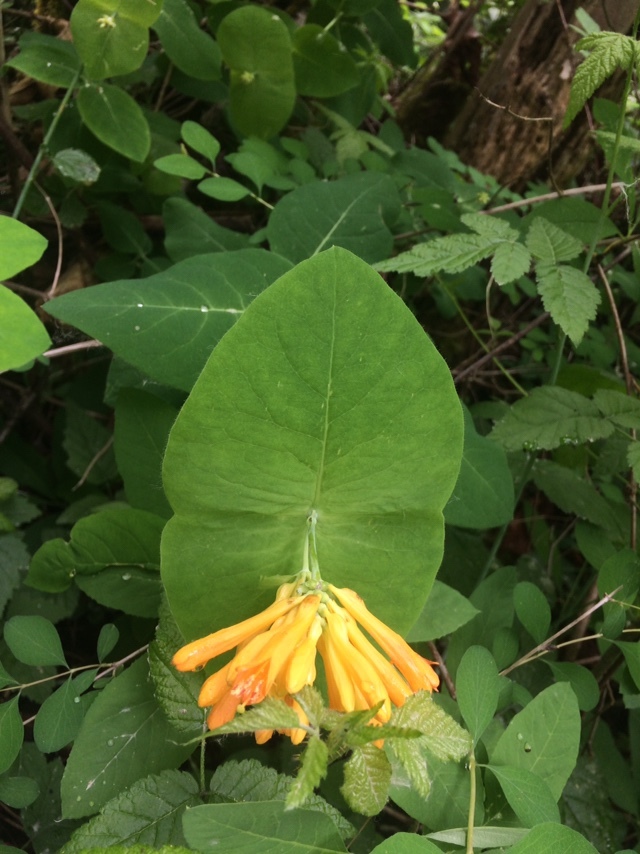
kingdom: Plantae
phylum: Tracheophyta
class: Magnoliopsida
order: Dipsacales
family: Caprifoliaceae
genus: Lonicera
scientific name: Lonicera ciliosa
